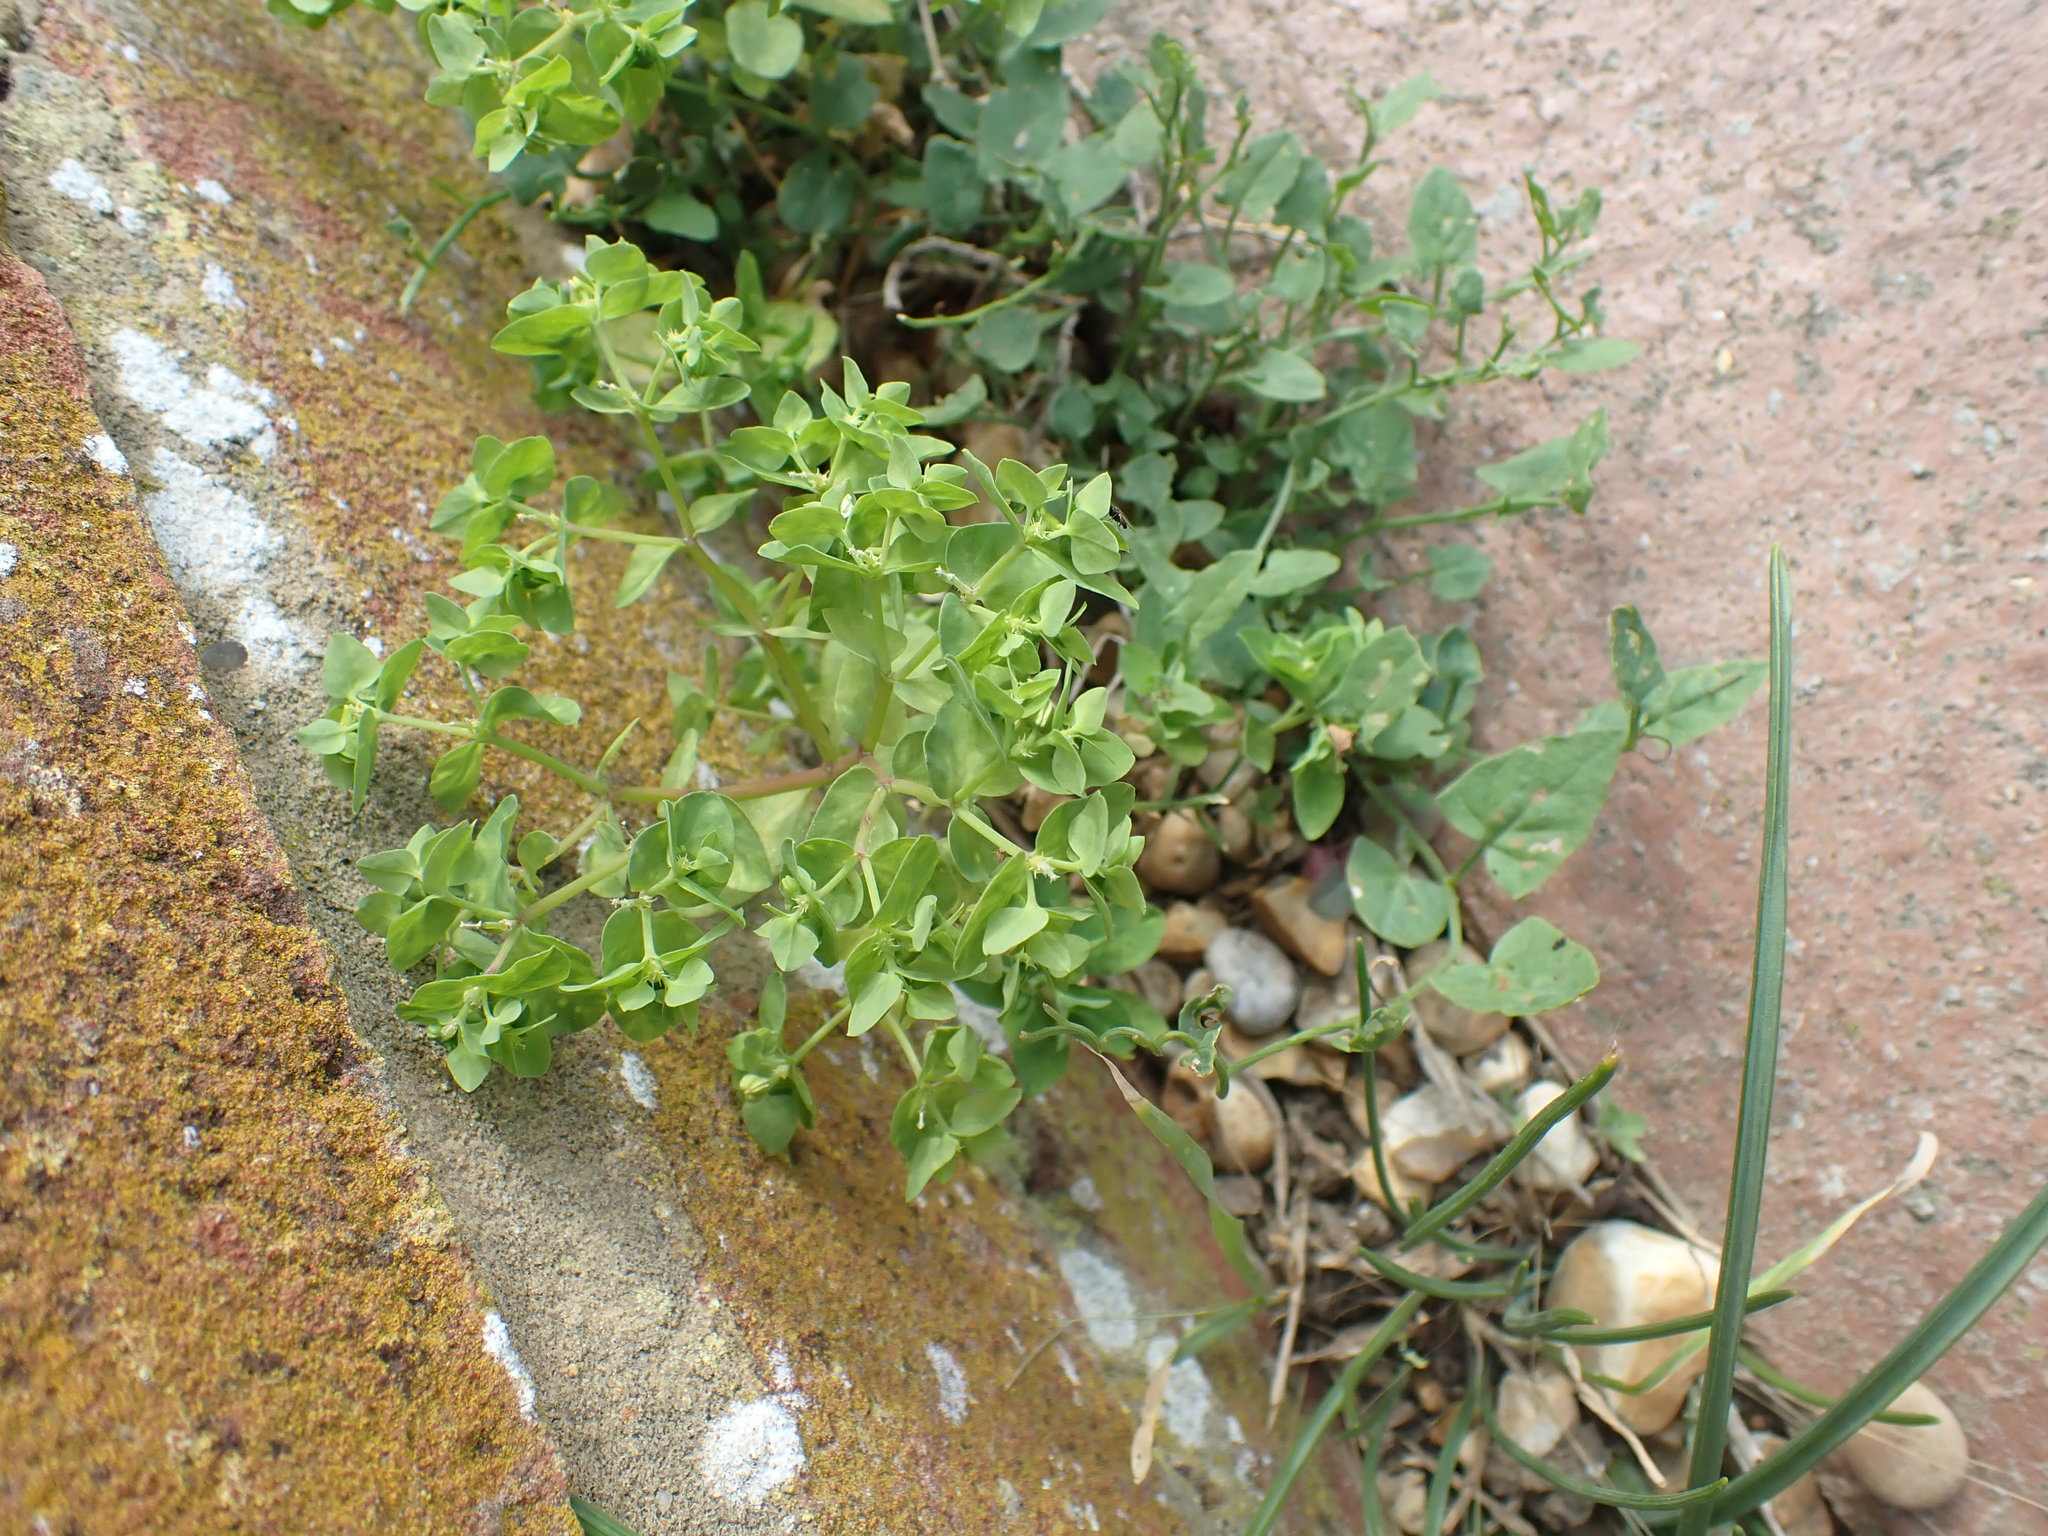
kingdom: Plantae
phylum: Tracheophyta
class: Magnoliopsida
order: Malpighiales
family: Euphorbiaceae
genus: Euphorbia
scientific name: Euphorbia peplus
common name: Petty spurge
